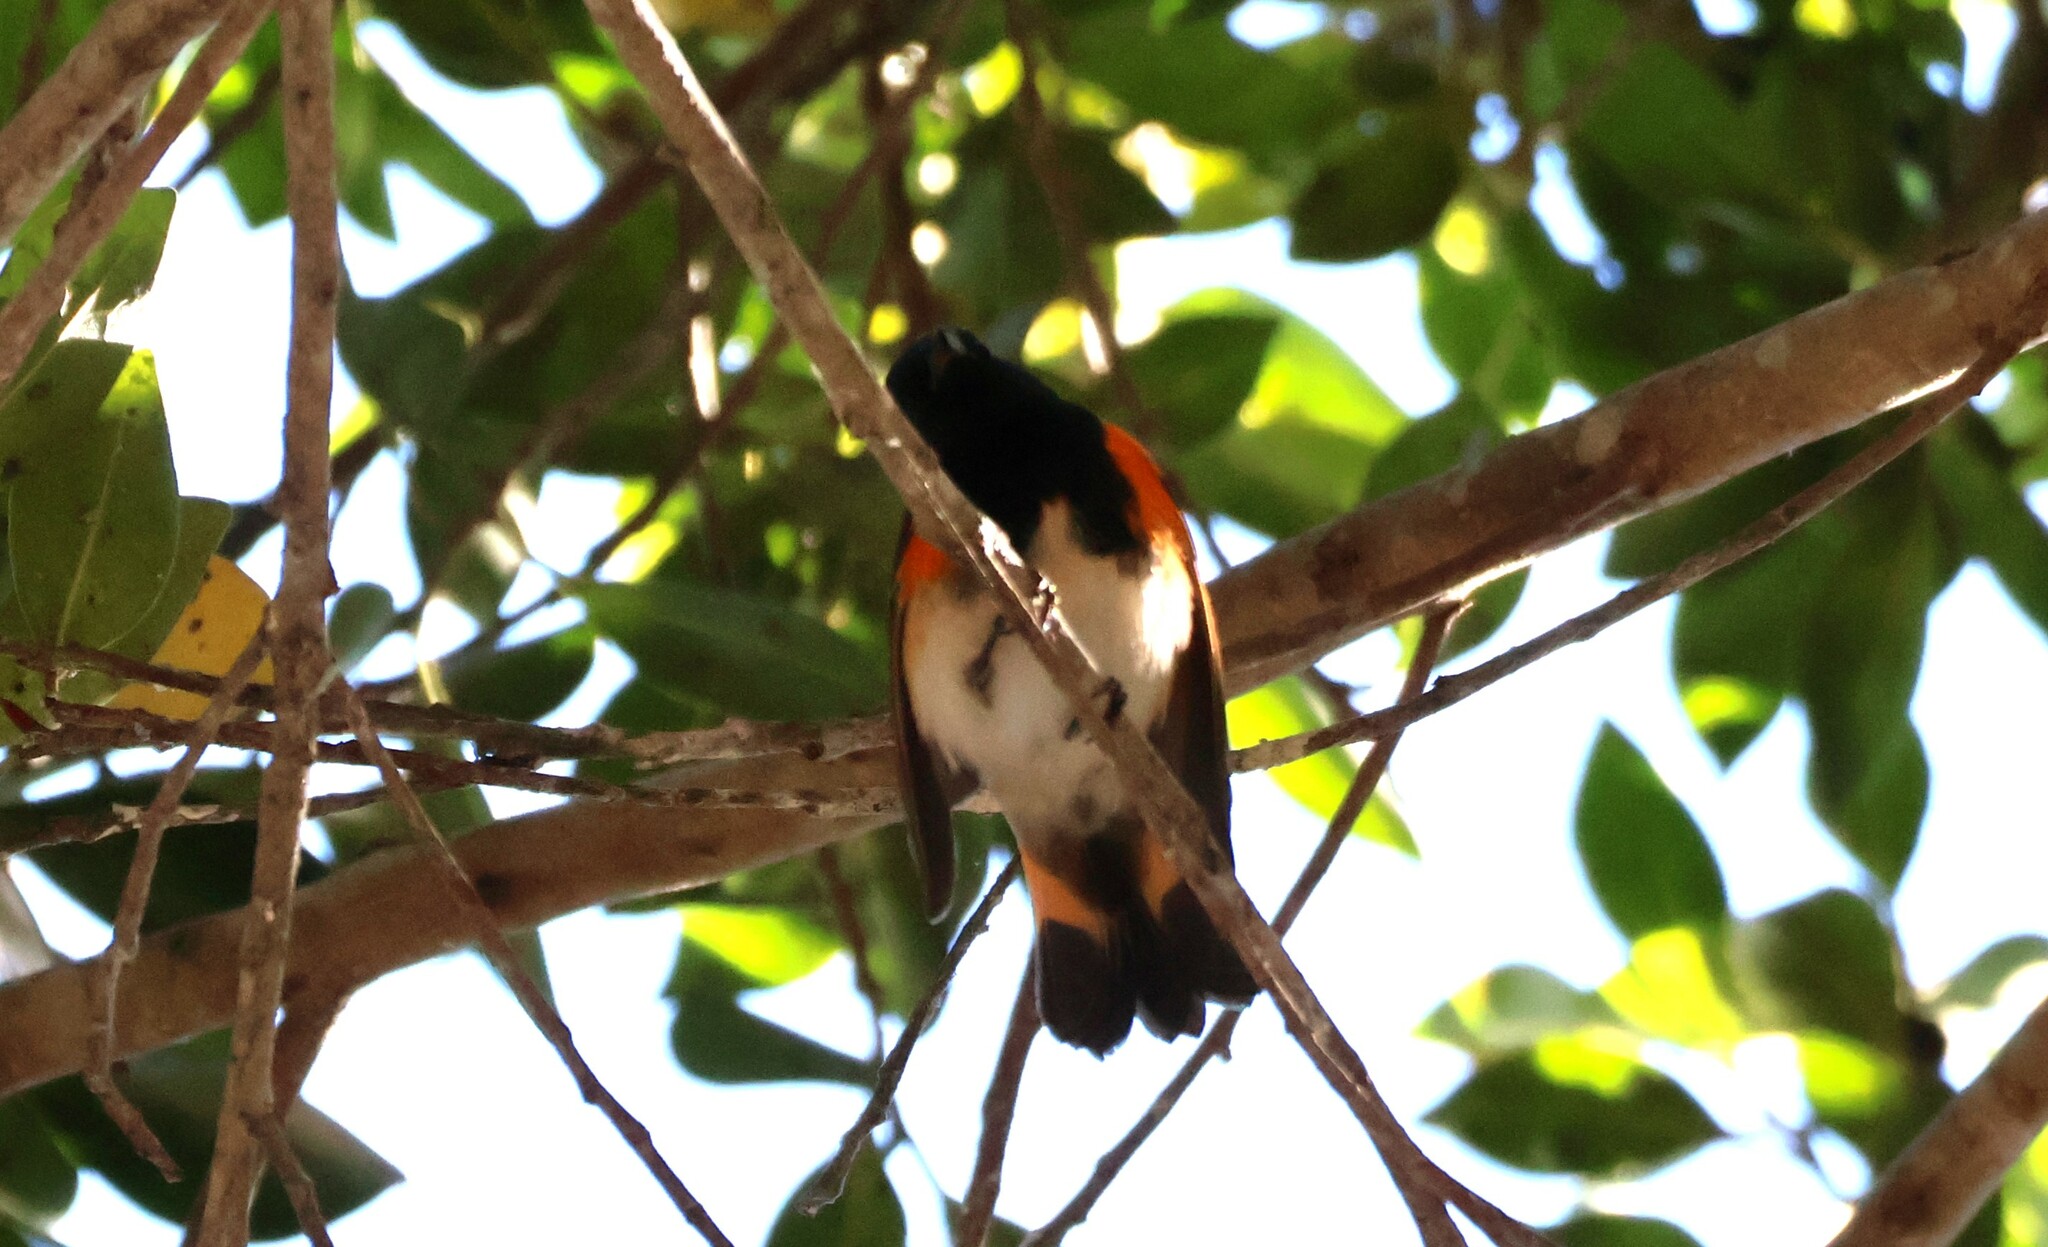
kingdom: Animalia
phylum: Chordata
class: Aves
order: Passeriformes
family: Parulidae
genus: Setophaga
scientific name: Setophaga ruticilla
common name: American redstart
